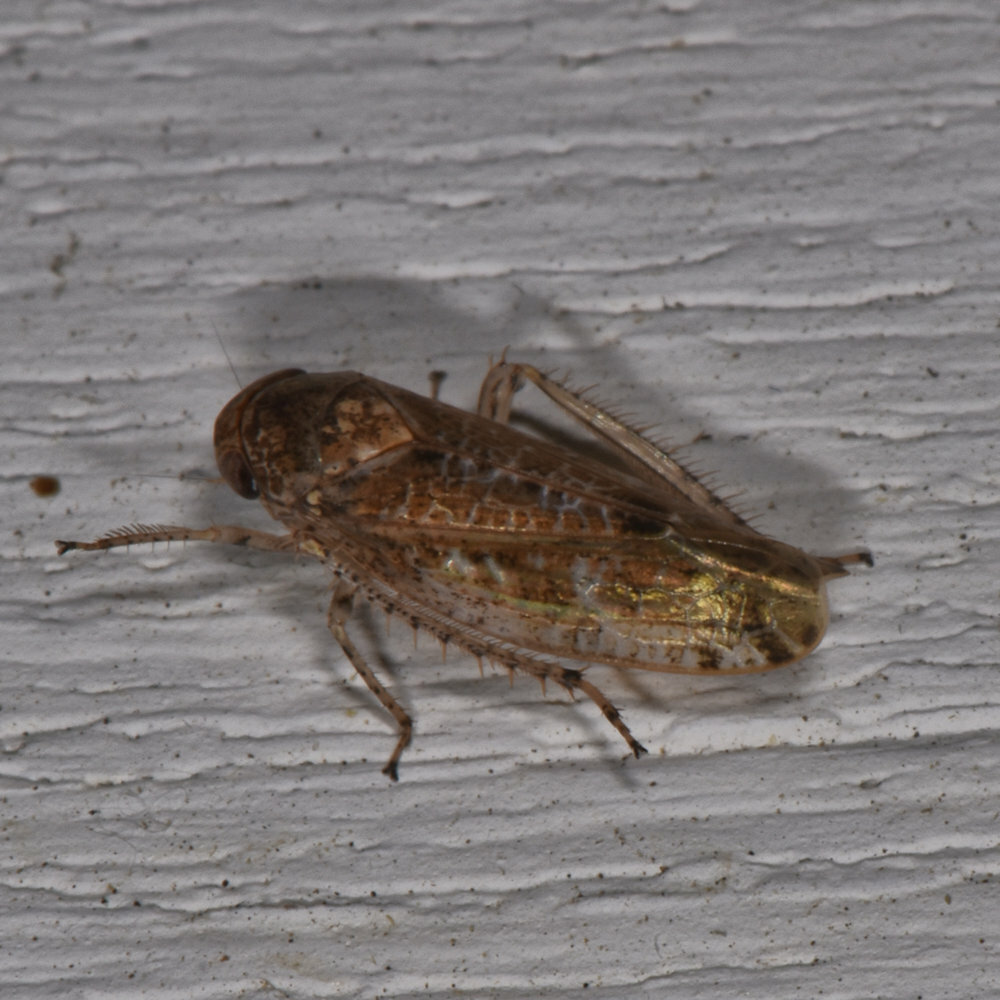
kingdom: Animalia
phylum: Arthropoda
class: Insecta
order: Hemiptera
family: Cicadellidae
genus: Allygidius
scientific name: Allygidius atomarius
